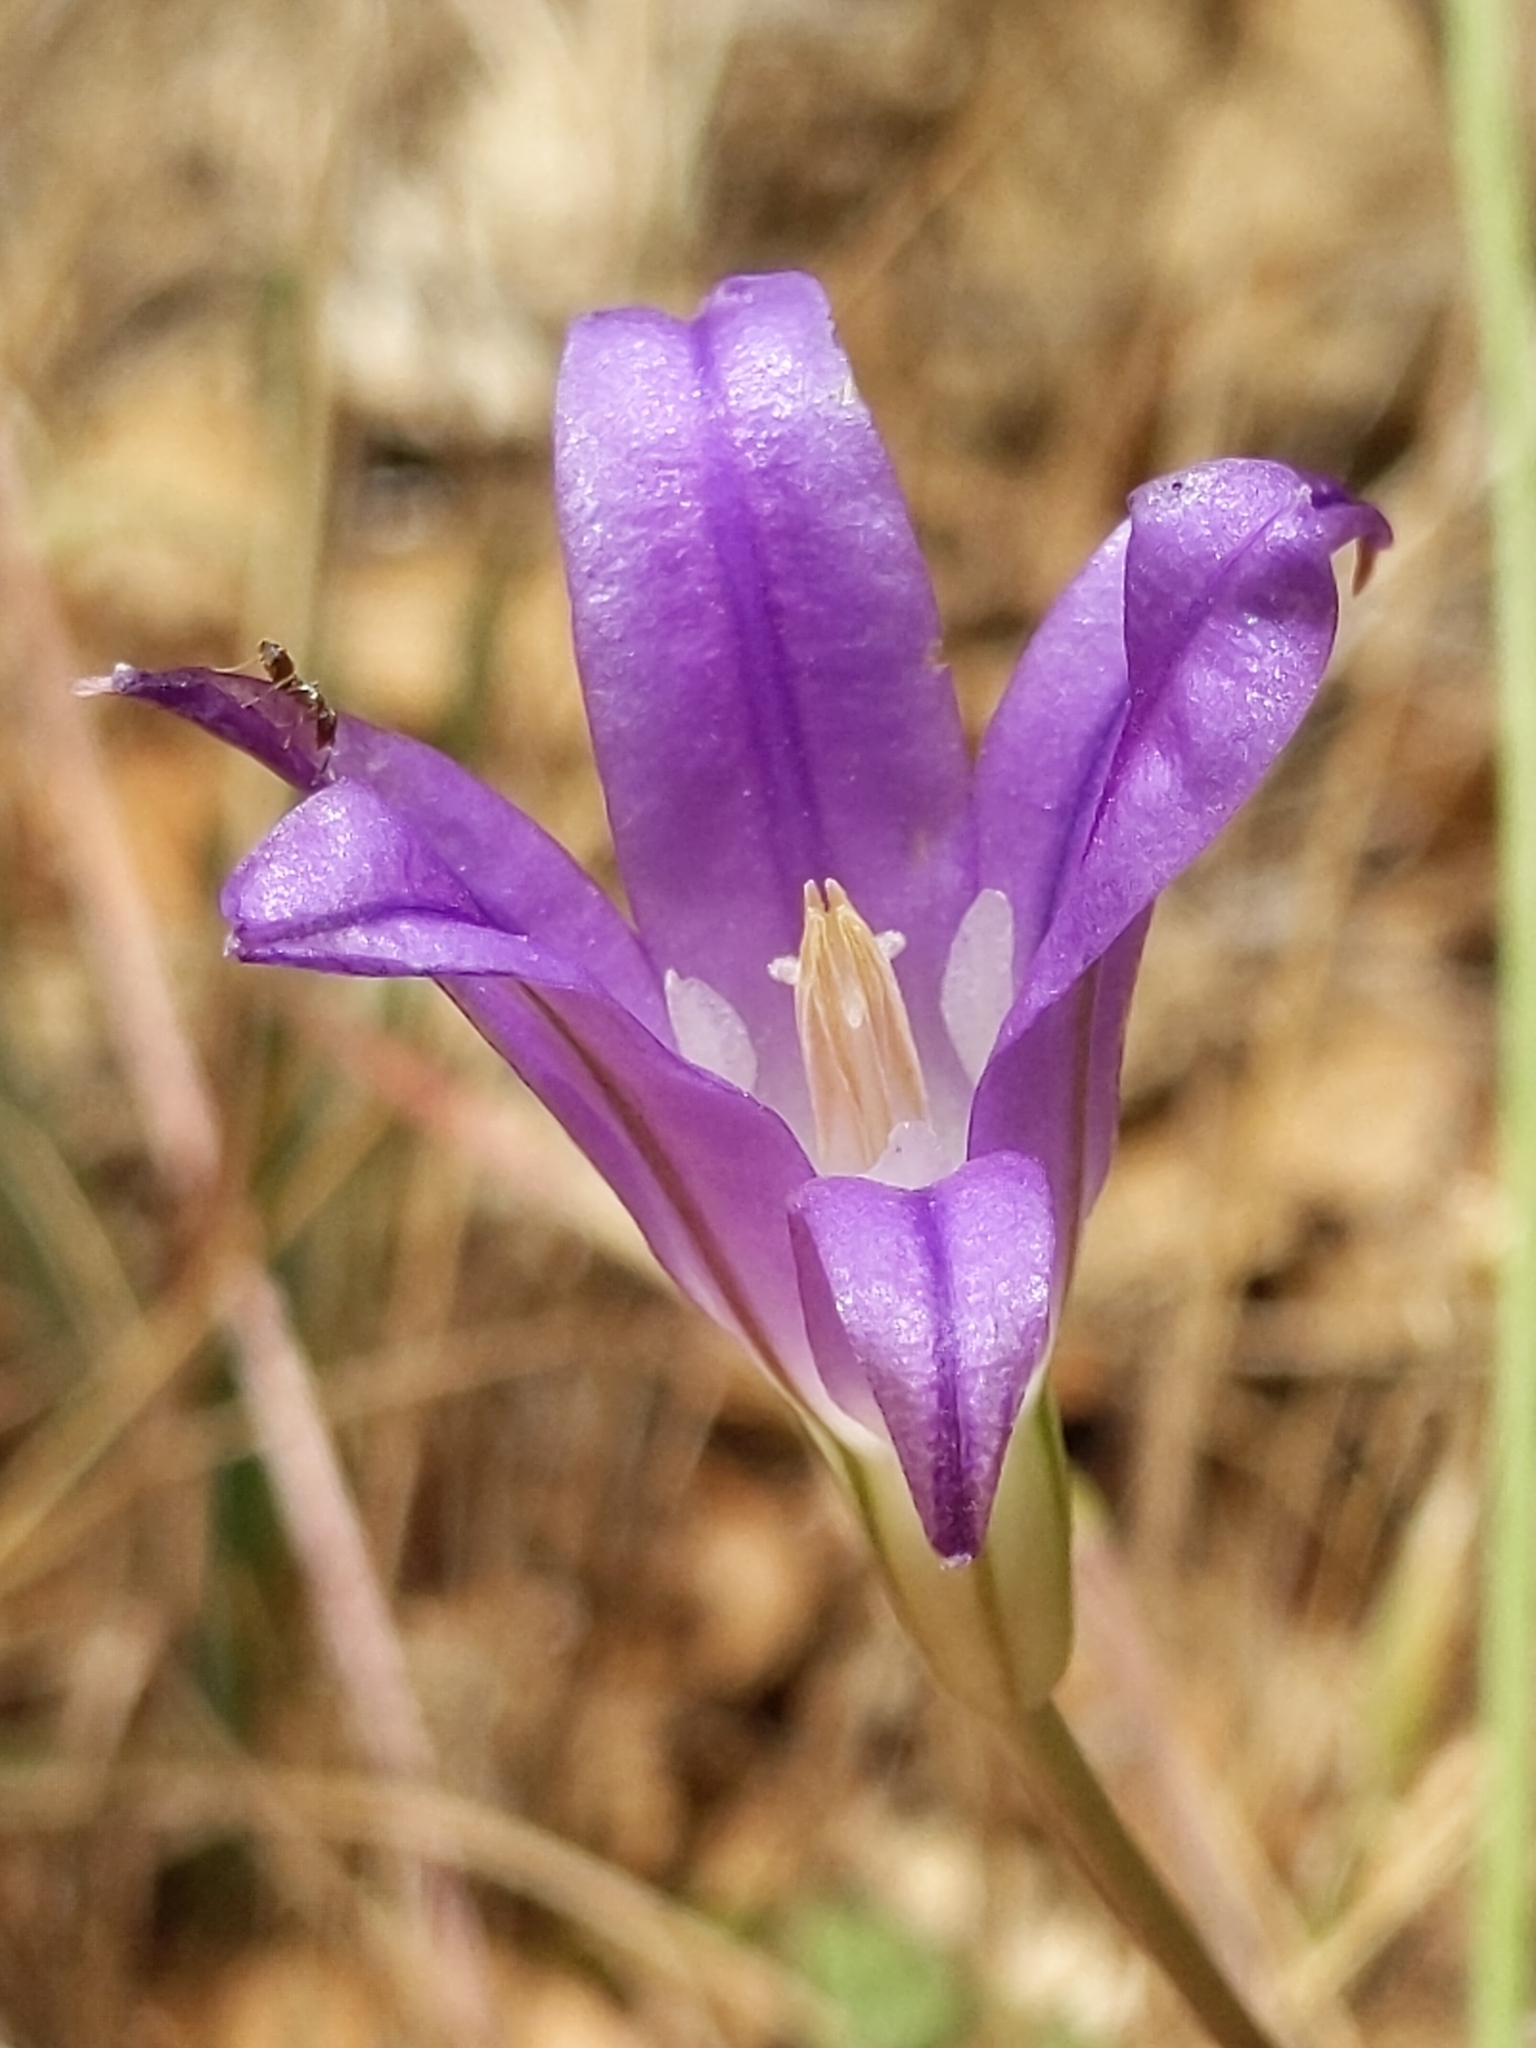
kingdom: Plantae
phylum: Tracheophyta
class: Liliopsida
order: Asparagales
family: Asparagaceae
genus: Brodiaea
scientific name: Brodiaea elegans
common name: Elegant cluster-lily
